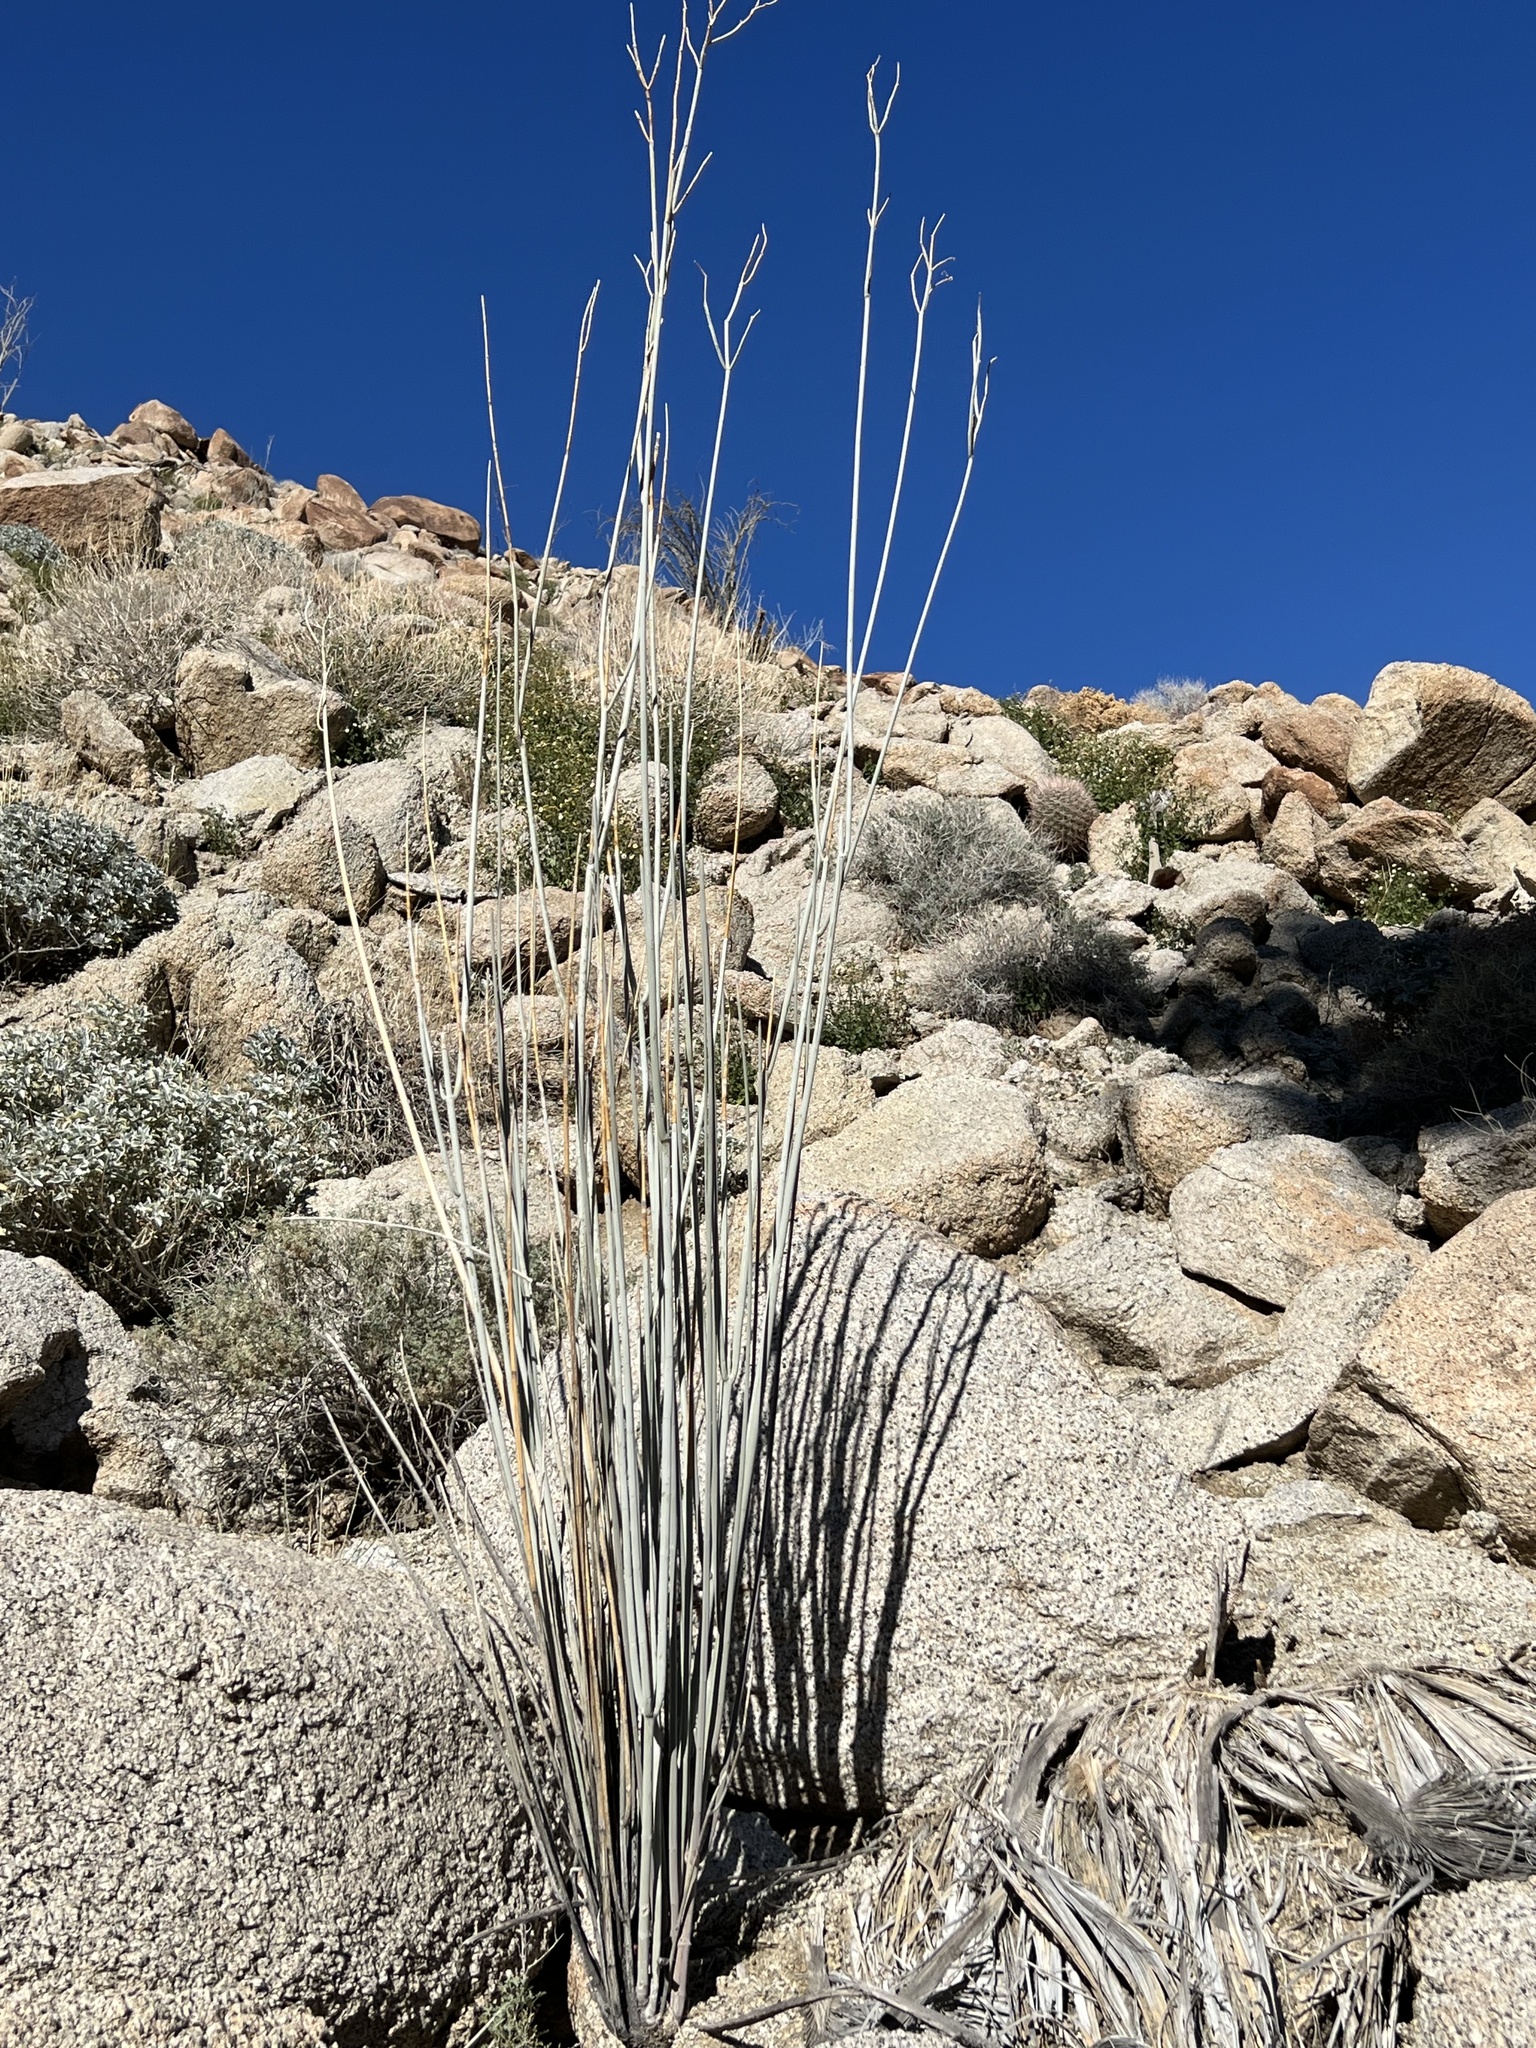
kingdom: Plantae
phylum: Tracheophyta
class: Magnoliopsida
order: Gentianales
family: Apocynaceae
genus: Asclepias
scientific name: Asclepias albicans
